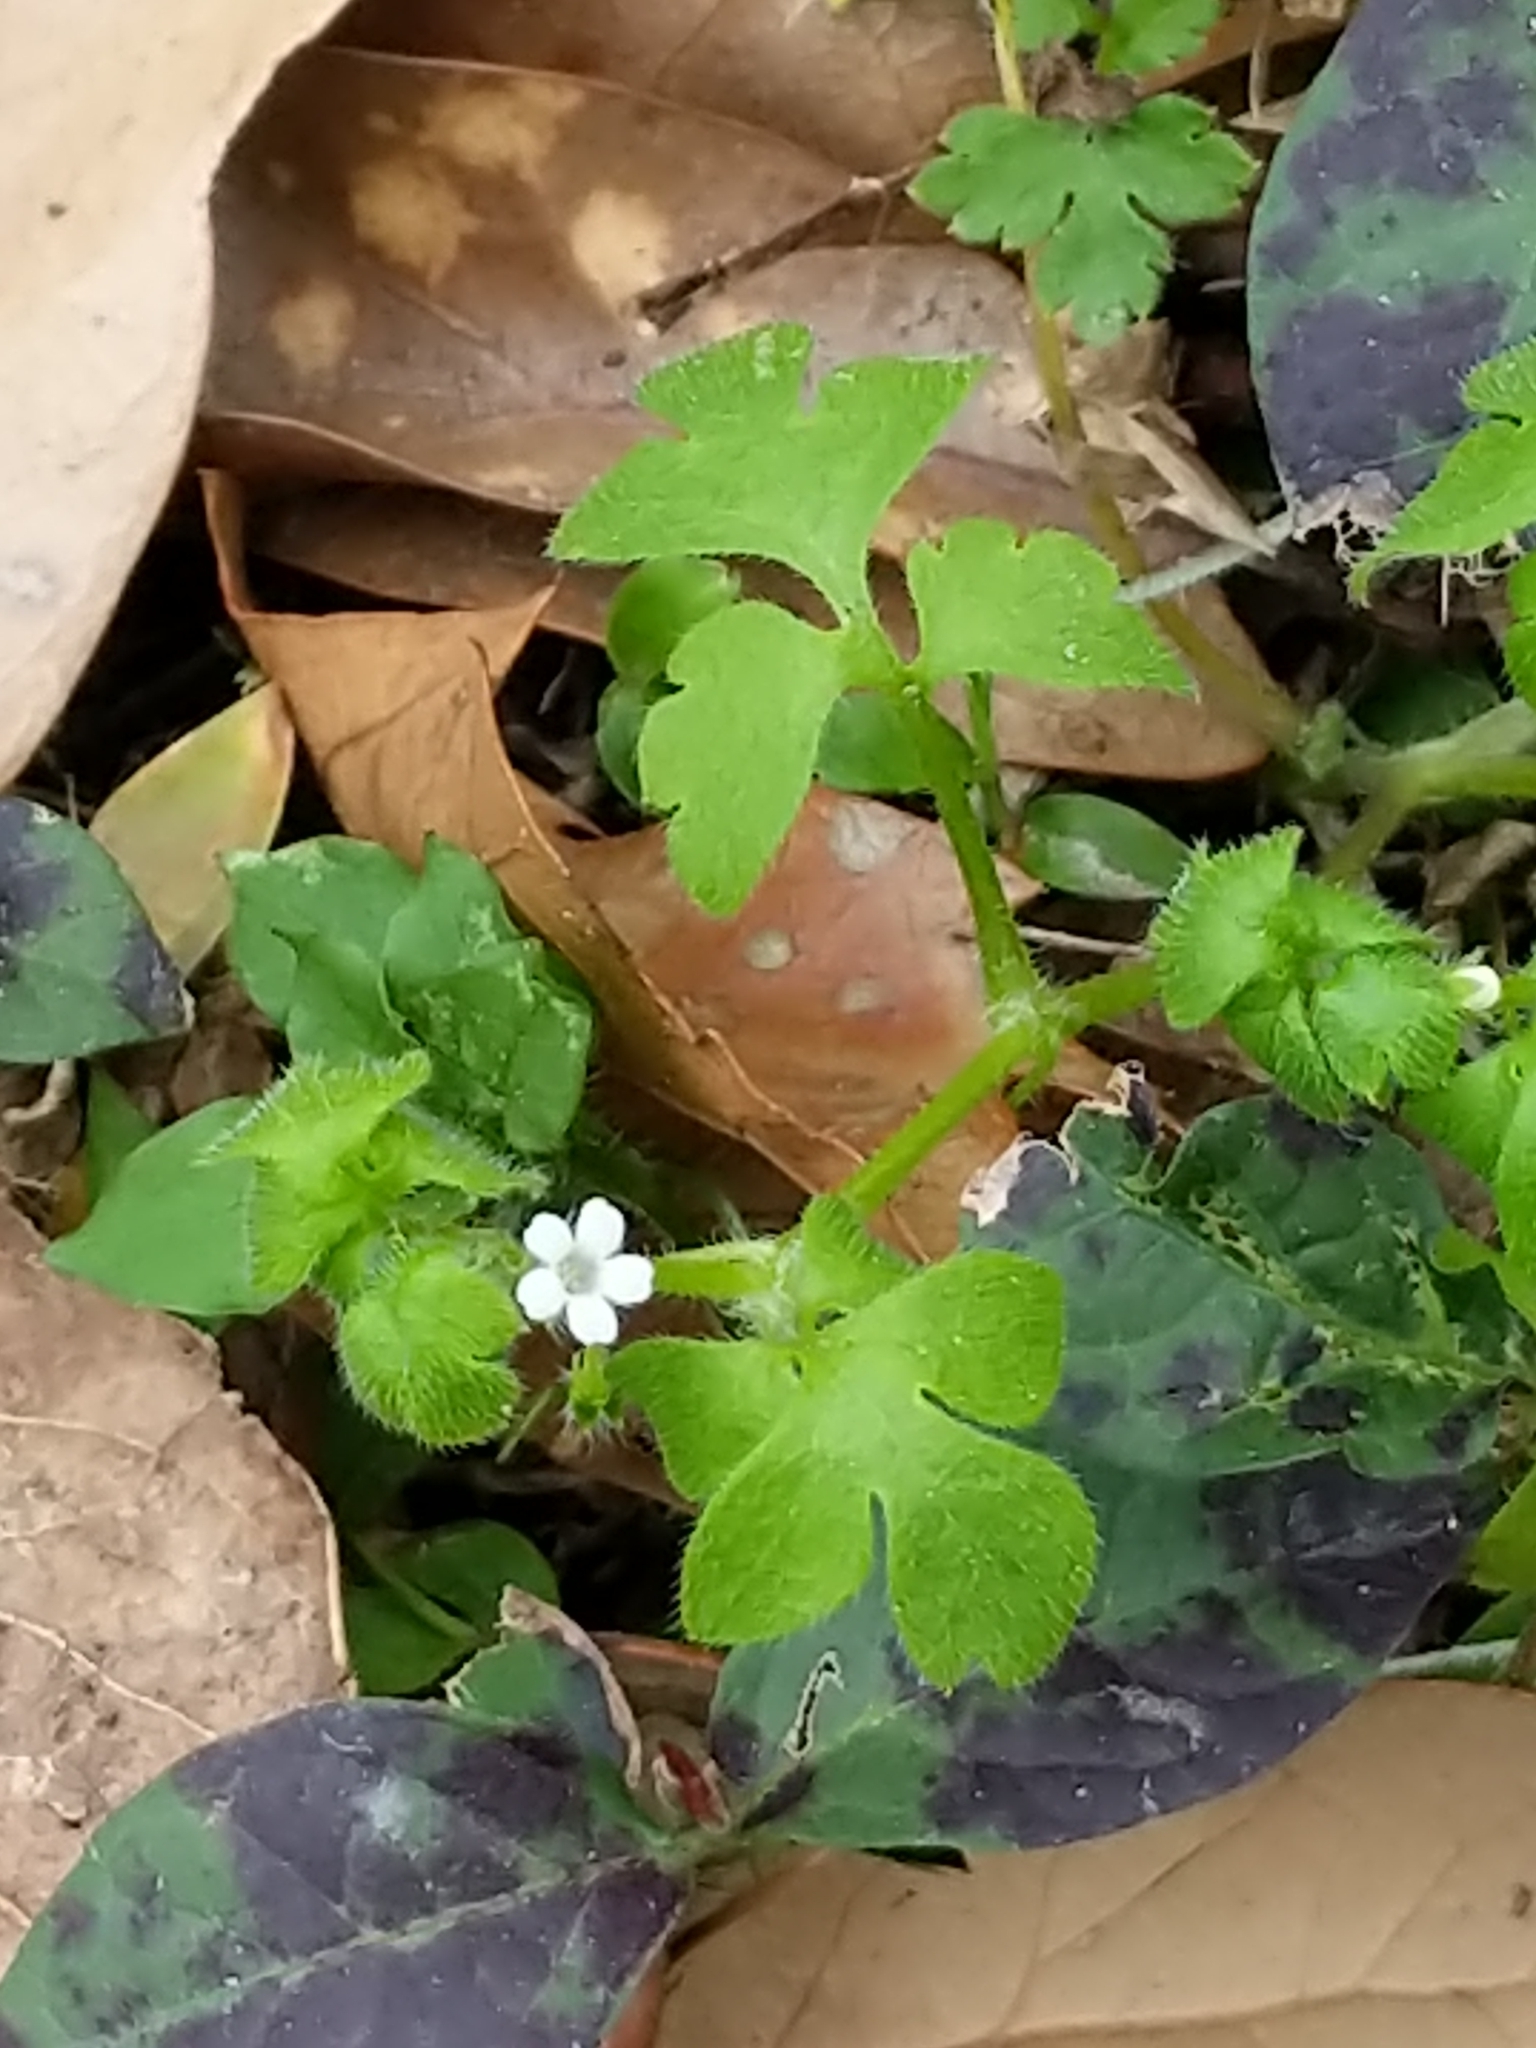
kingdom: Plantae
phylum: Tracheophyta
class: Magnoliopsida
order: Boraginales
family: Hydrophyllaceae
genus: Nemophila
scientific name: Nemophila aphylla
